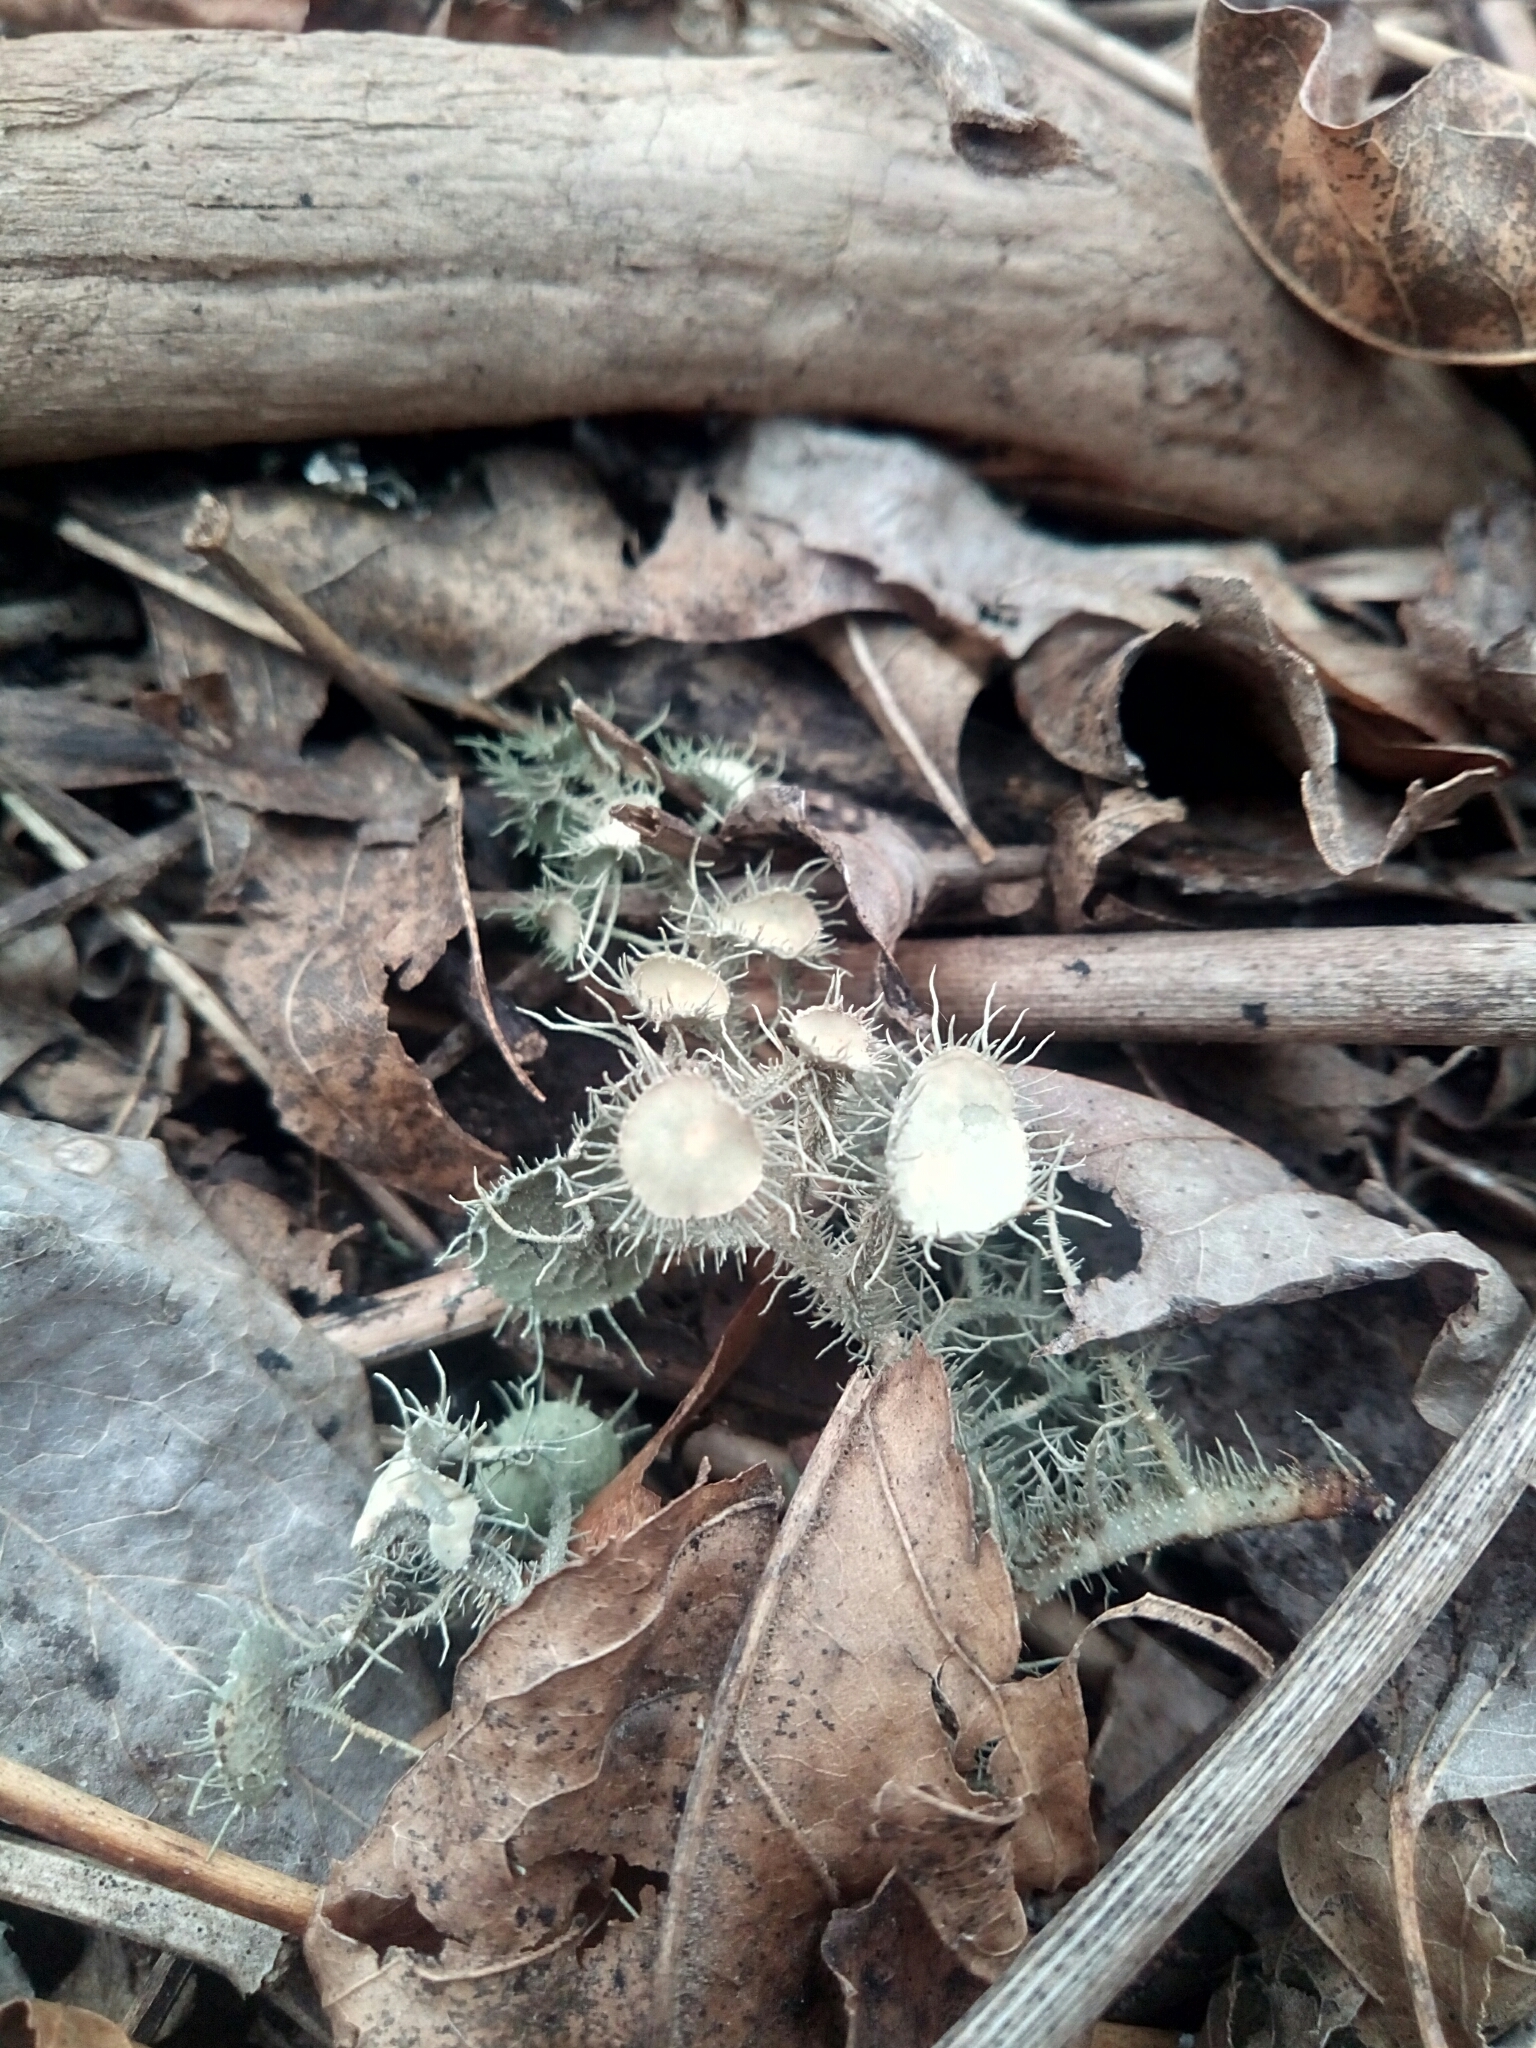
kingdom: Fungi
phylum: Ascomycota
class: Lecanoromycetes
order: Lecanorales
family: Parmeliaceae
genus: Usnea
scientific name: Usnea strigosa
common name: Bushy beard lichen
